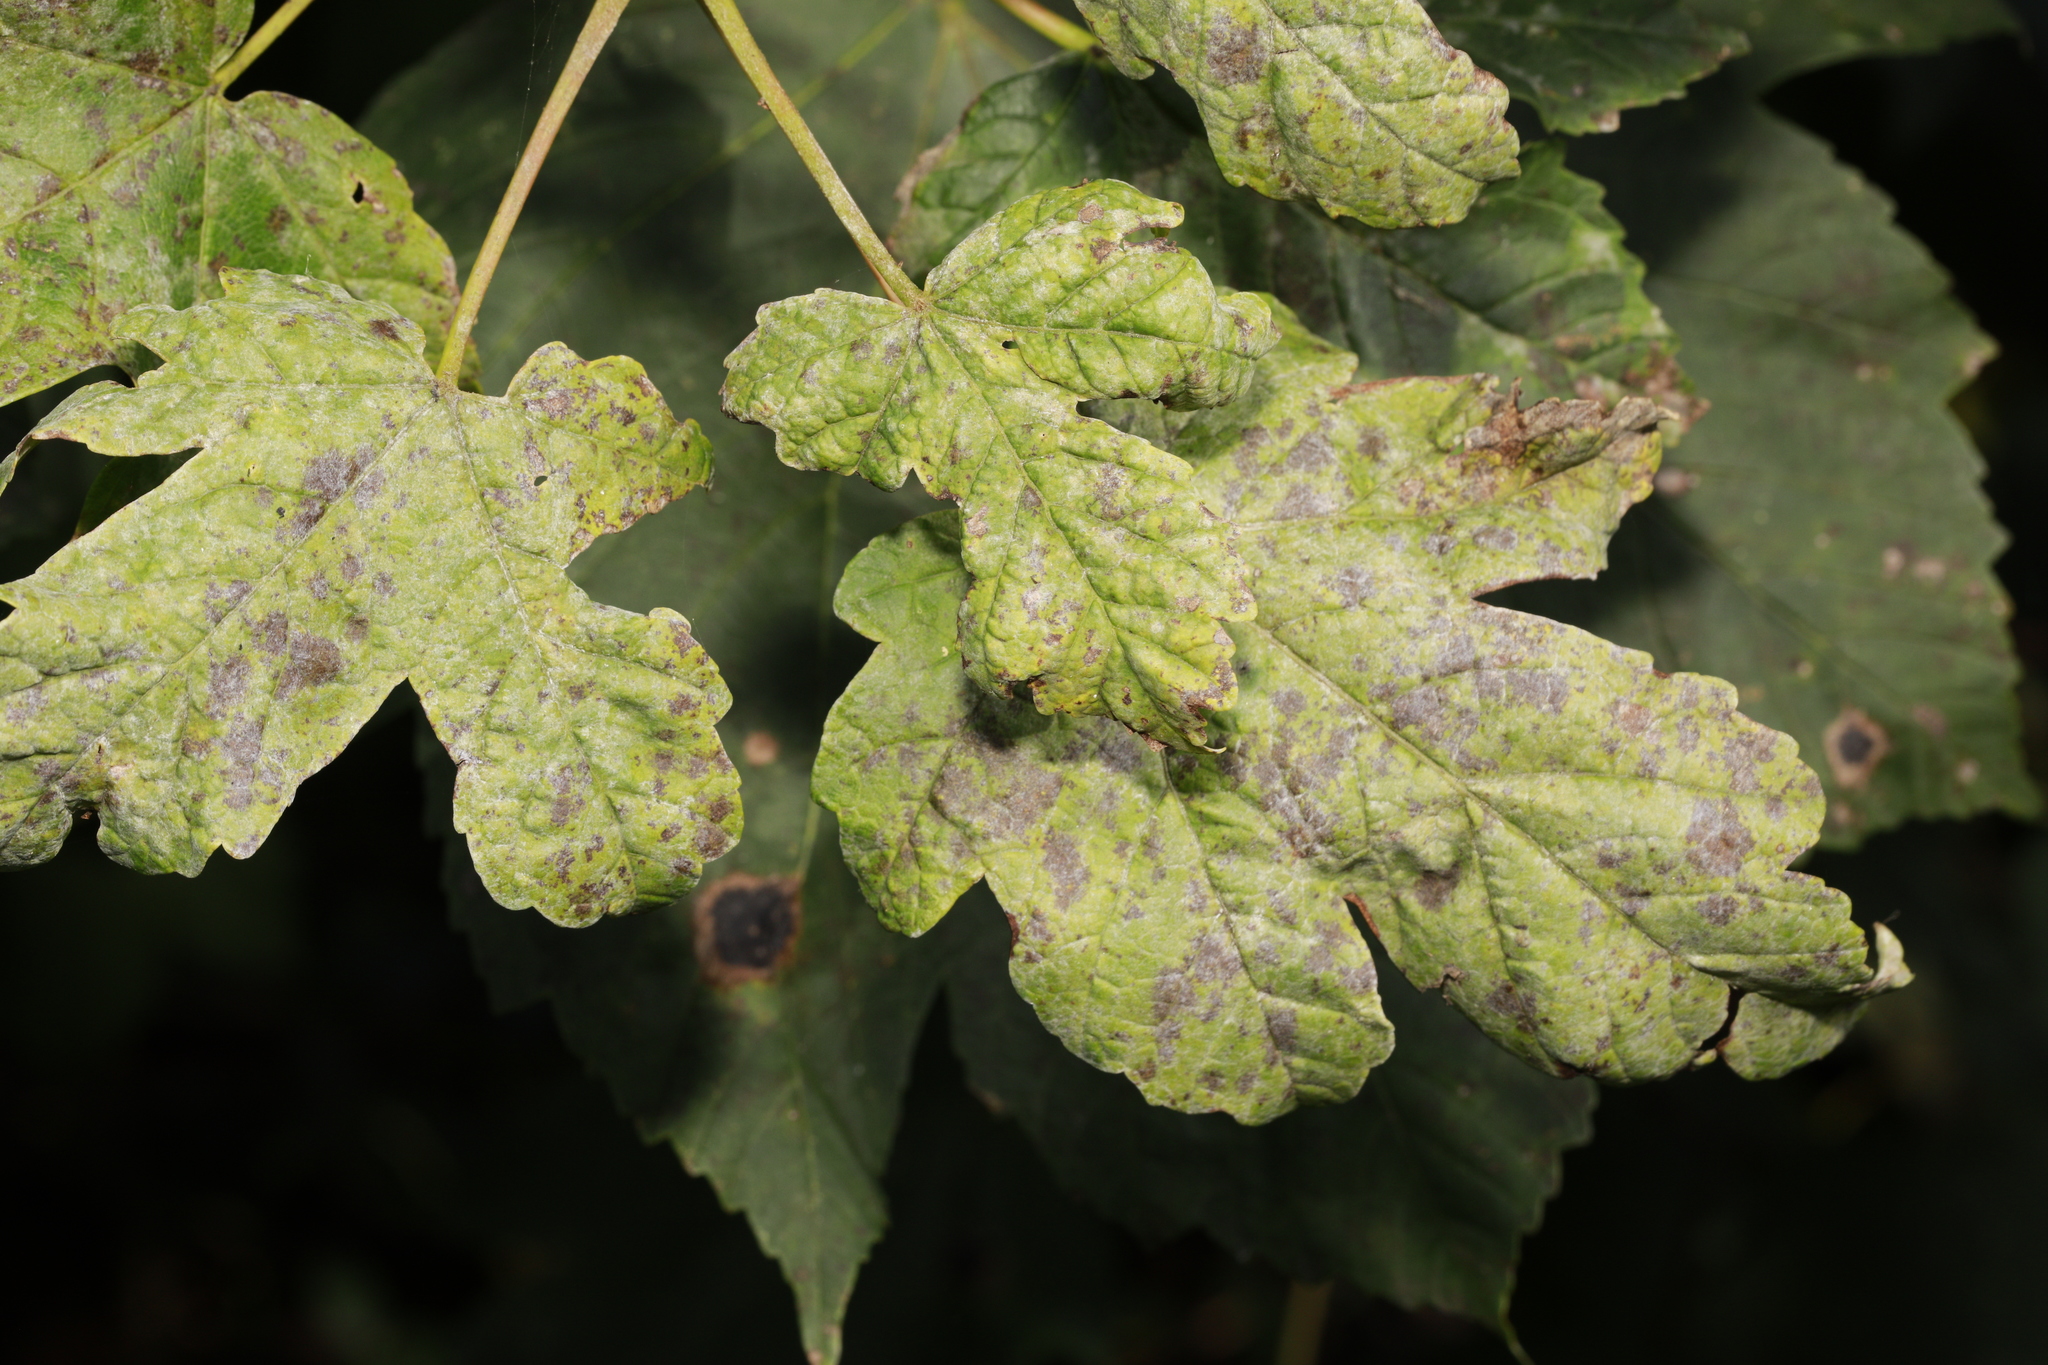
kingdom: Plantae
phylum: Tracheophyta
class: Magnoliopsida
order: Sapindales
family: Sapindaceae
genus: Acer
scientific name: Acer pseudoplatanus
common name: Sycamore
